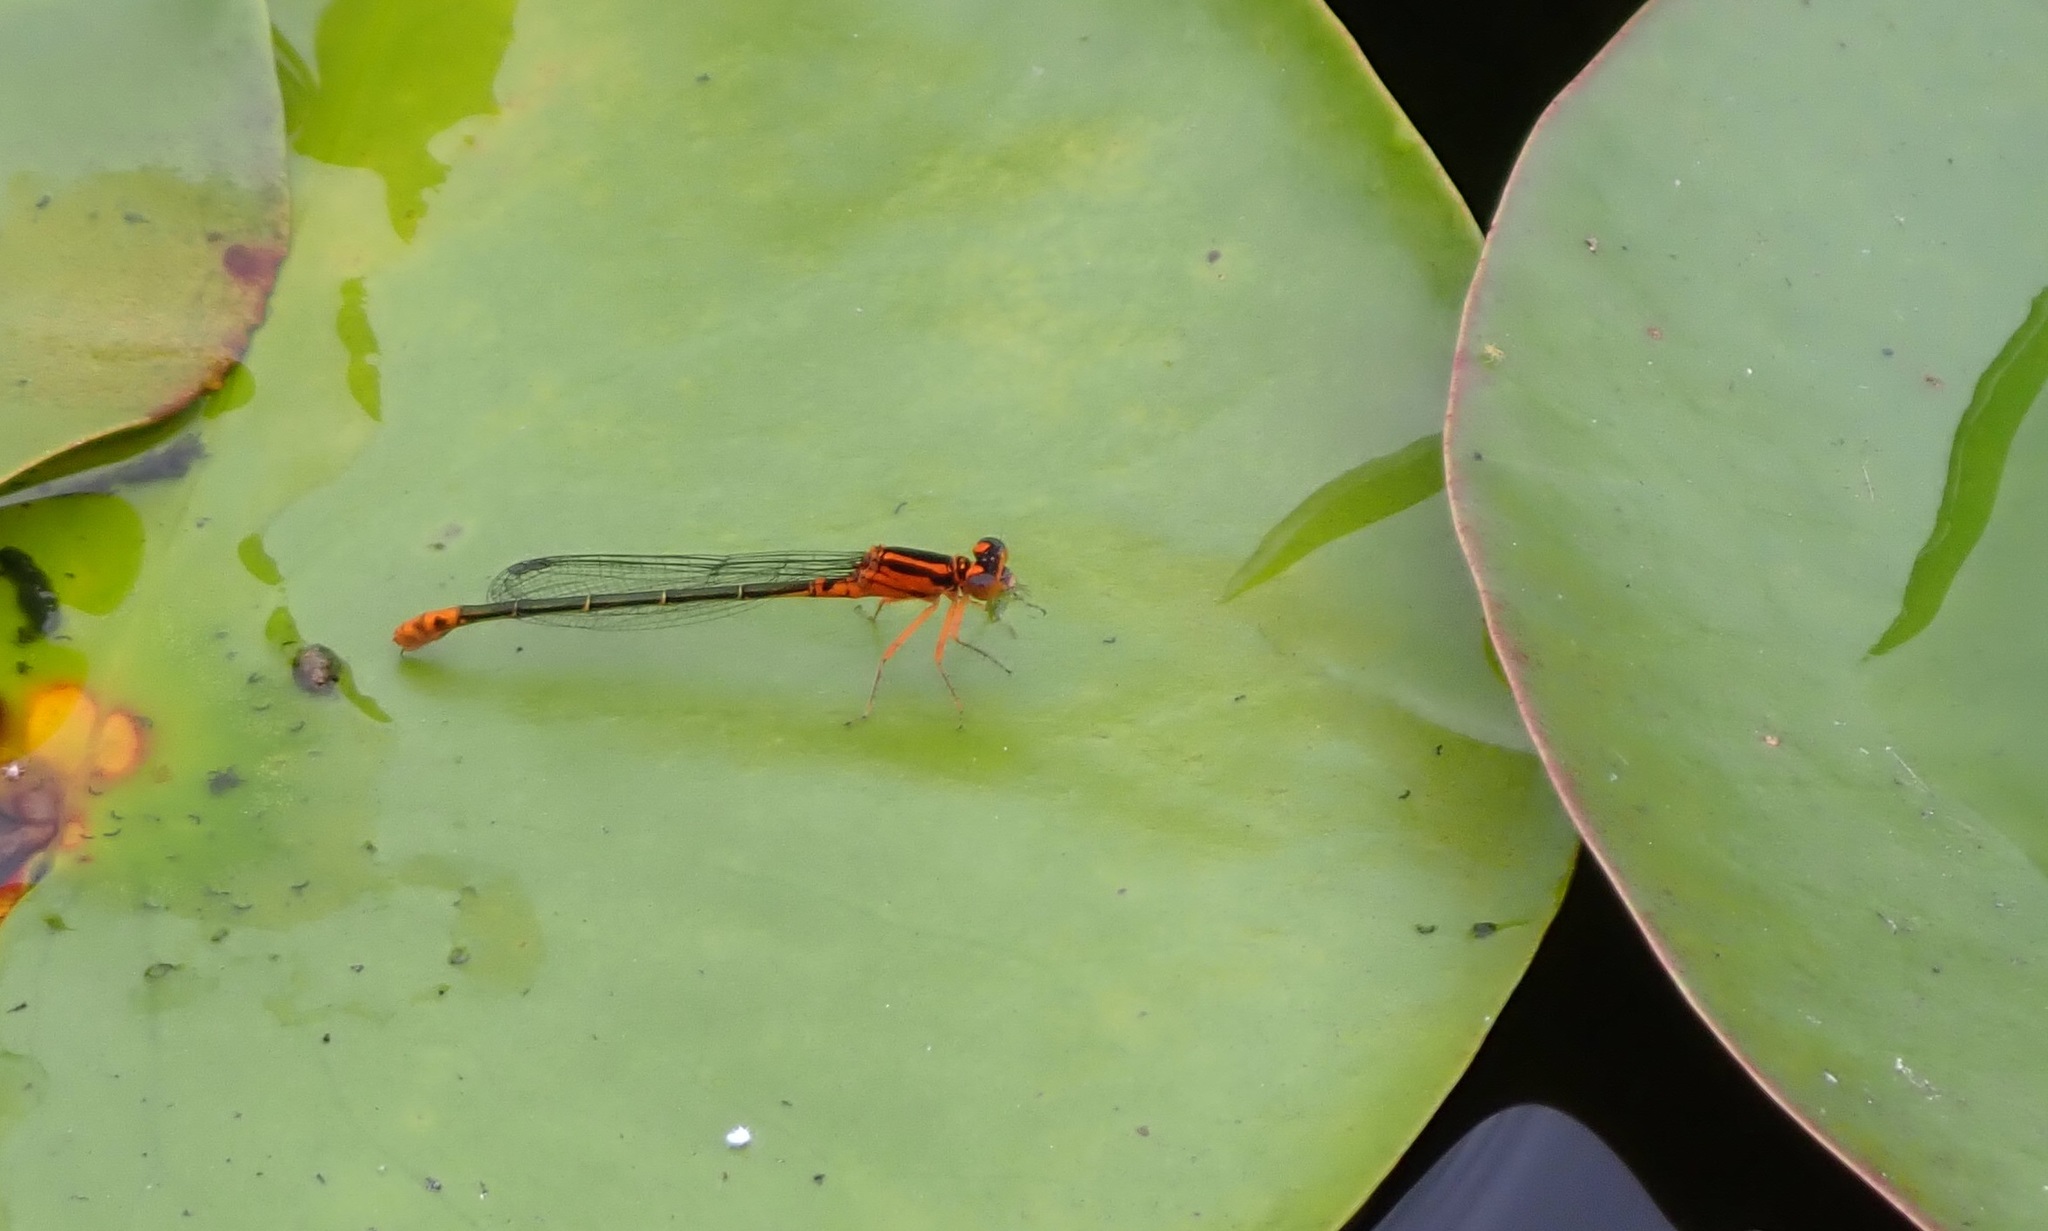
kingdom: Animalia
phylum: Arthropoda
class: Insecta
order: Odonata
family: Coenagrionidae
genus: Ischnura
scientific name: Ischnura kellicotti
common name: Lilypad forktail
